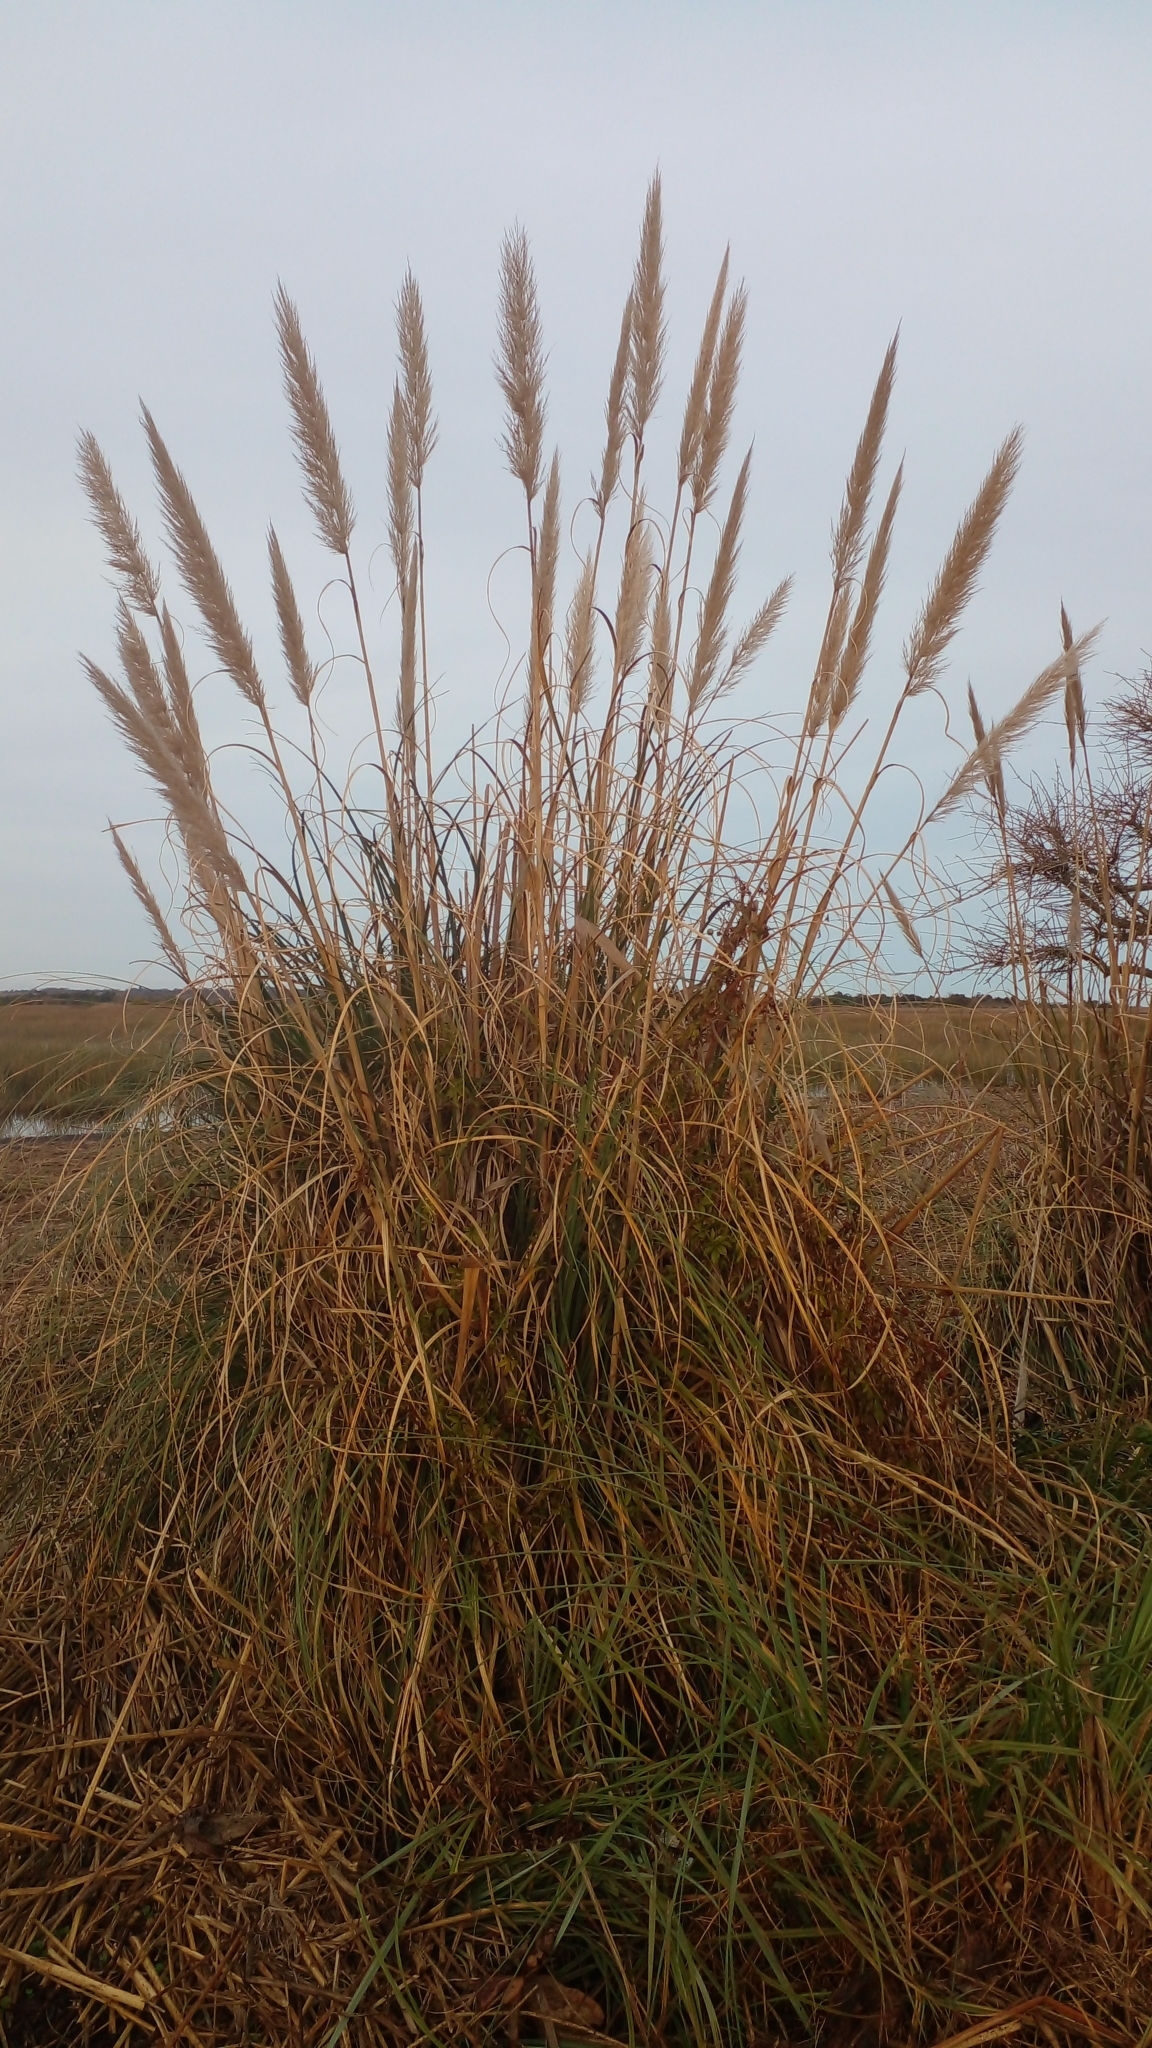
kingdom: Plantae
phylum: Tracheophyta
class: Liliopsida
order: Poales
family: Poaceae
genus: Cortaderia
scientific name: Cortaderia selloana
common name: Uruguayan pampas grass
